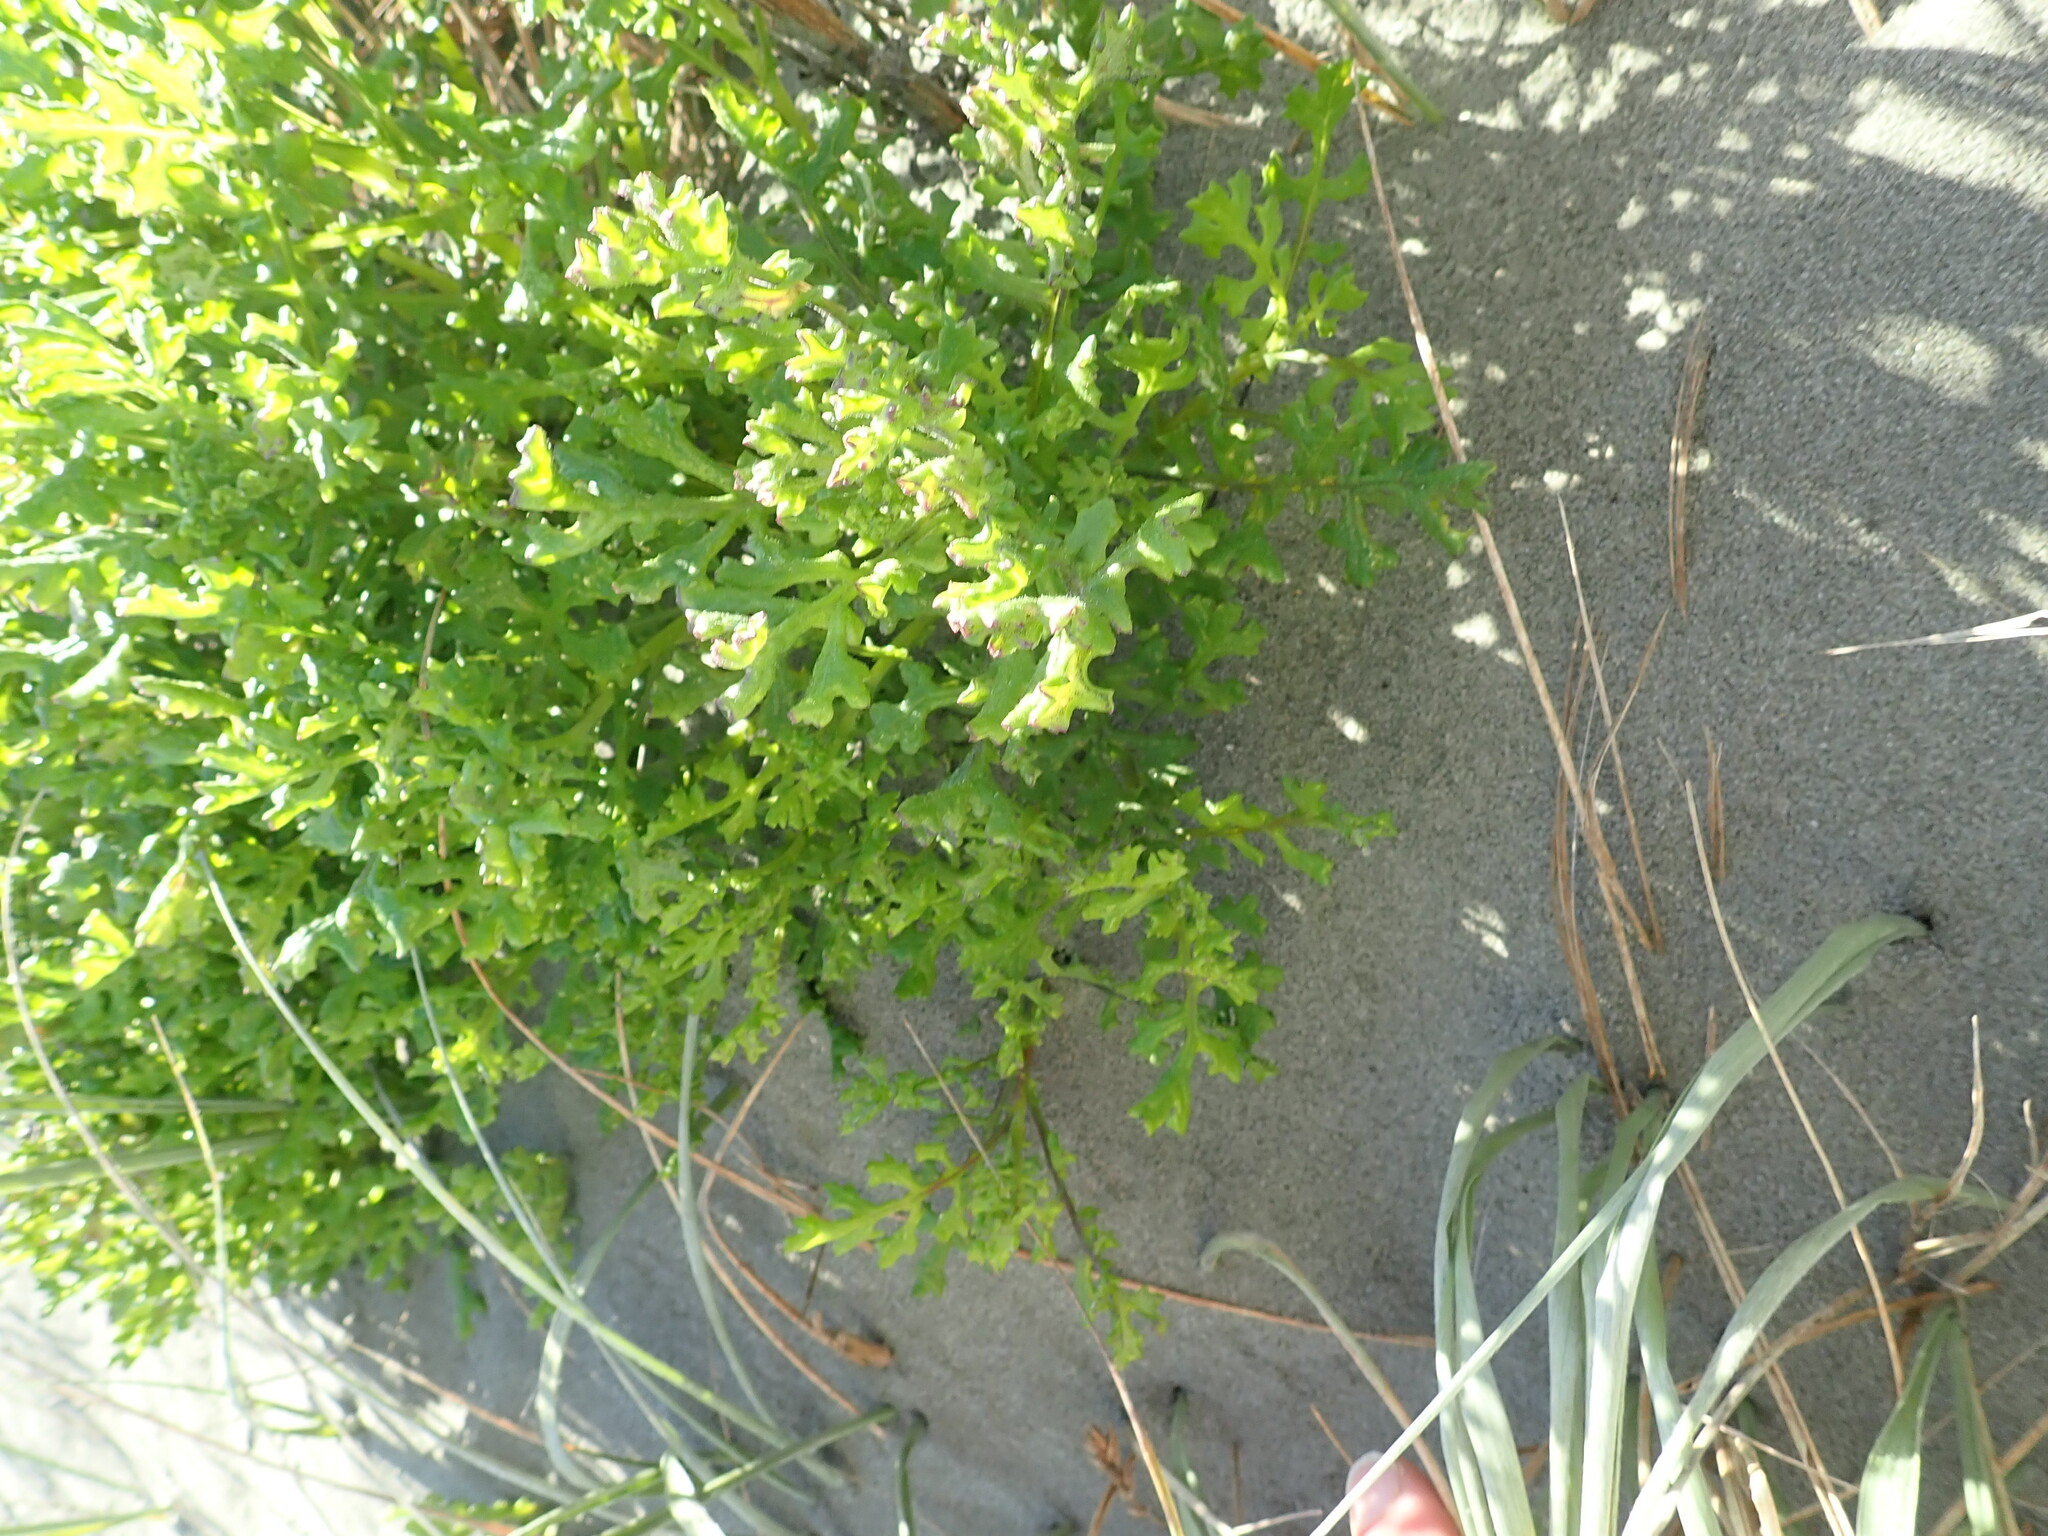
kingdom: Plantae
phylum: Tracheophyta
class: Magnoliopsida
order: Asterales
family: Asteraceae
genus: Senecio
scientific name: Senecio elegans
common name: Purple groundsel
